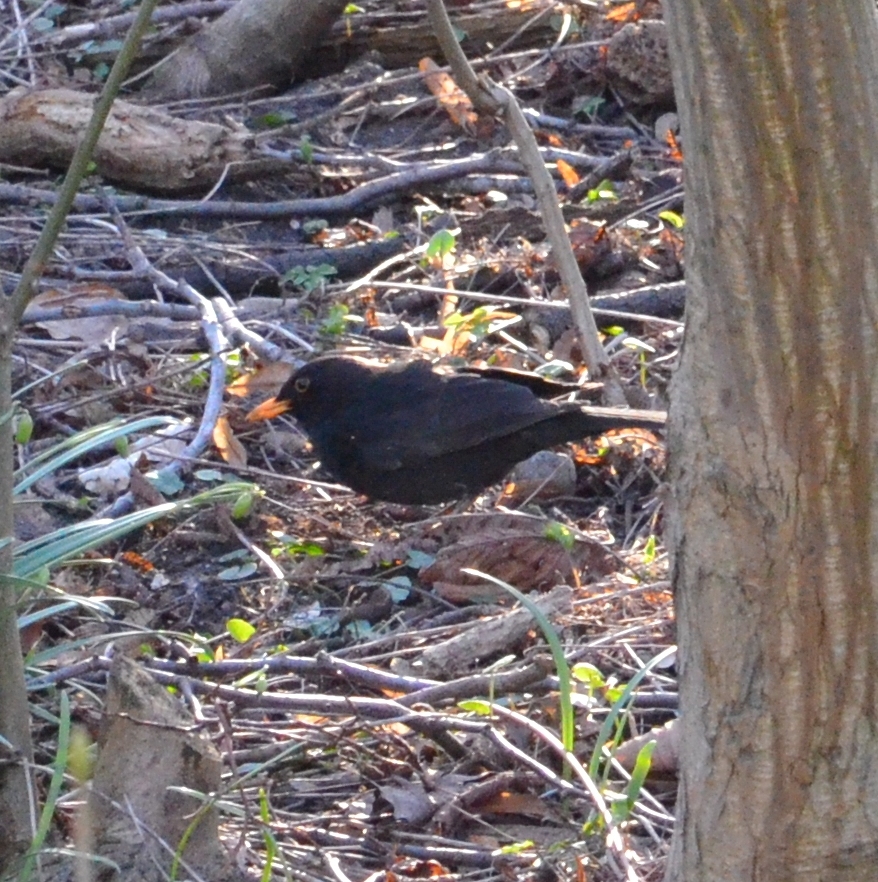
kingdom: Animalia
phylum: Chordata
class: Aves
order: Passeriformes
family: Turdidae
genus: Turdus
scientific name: Turdus merula
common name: Common blackbird
